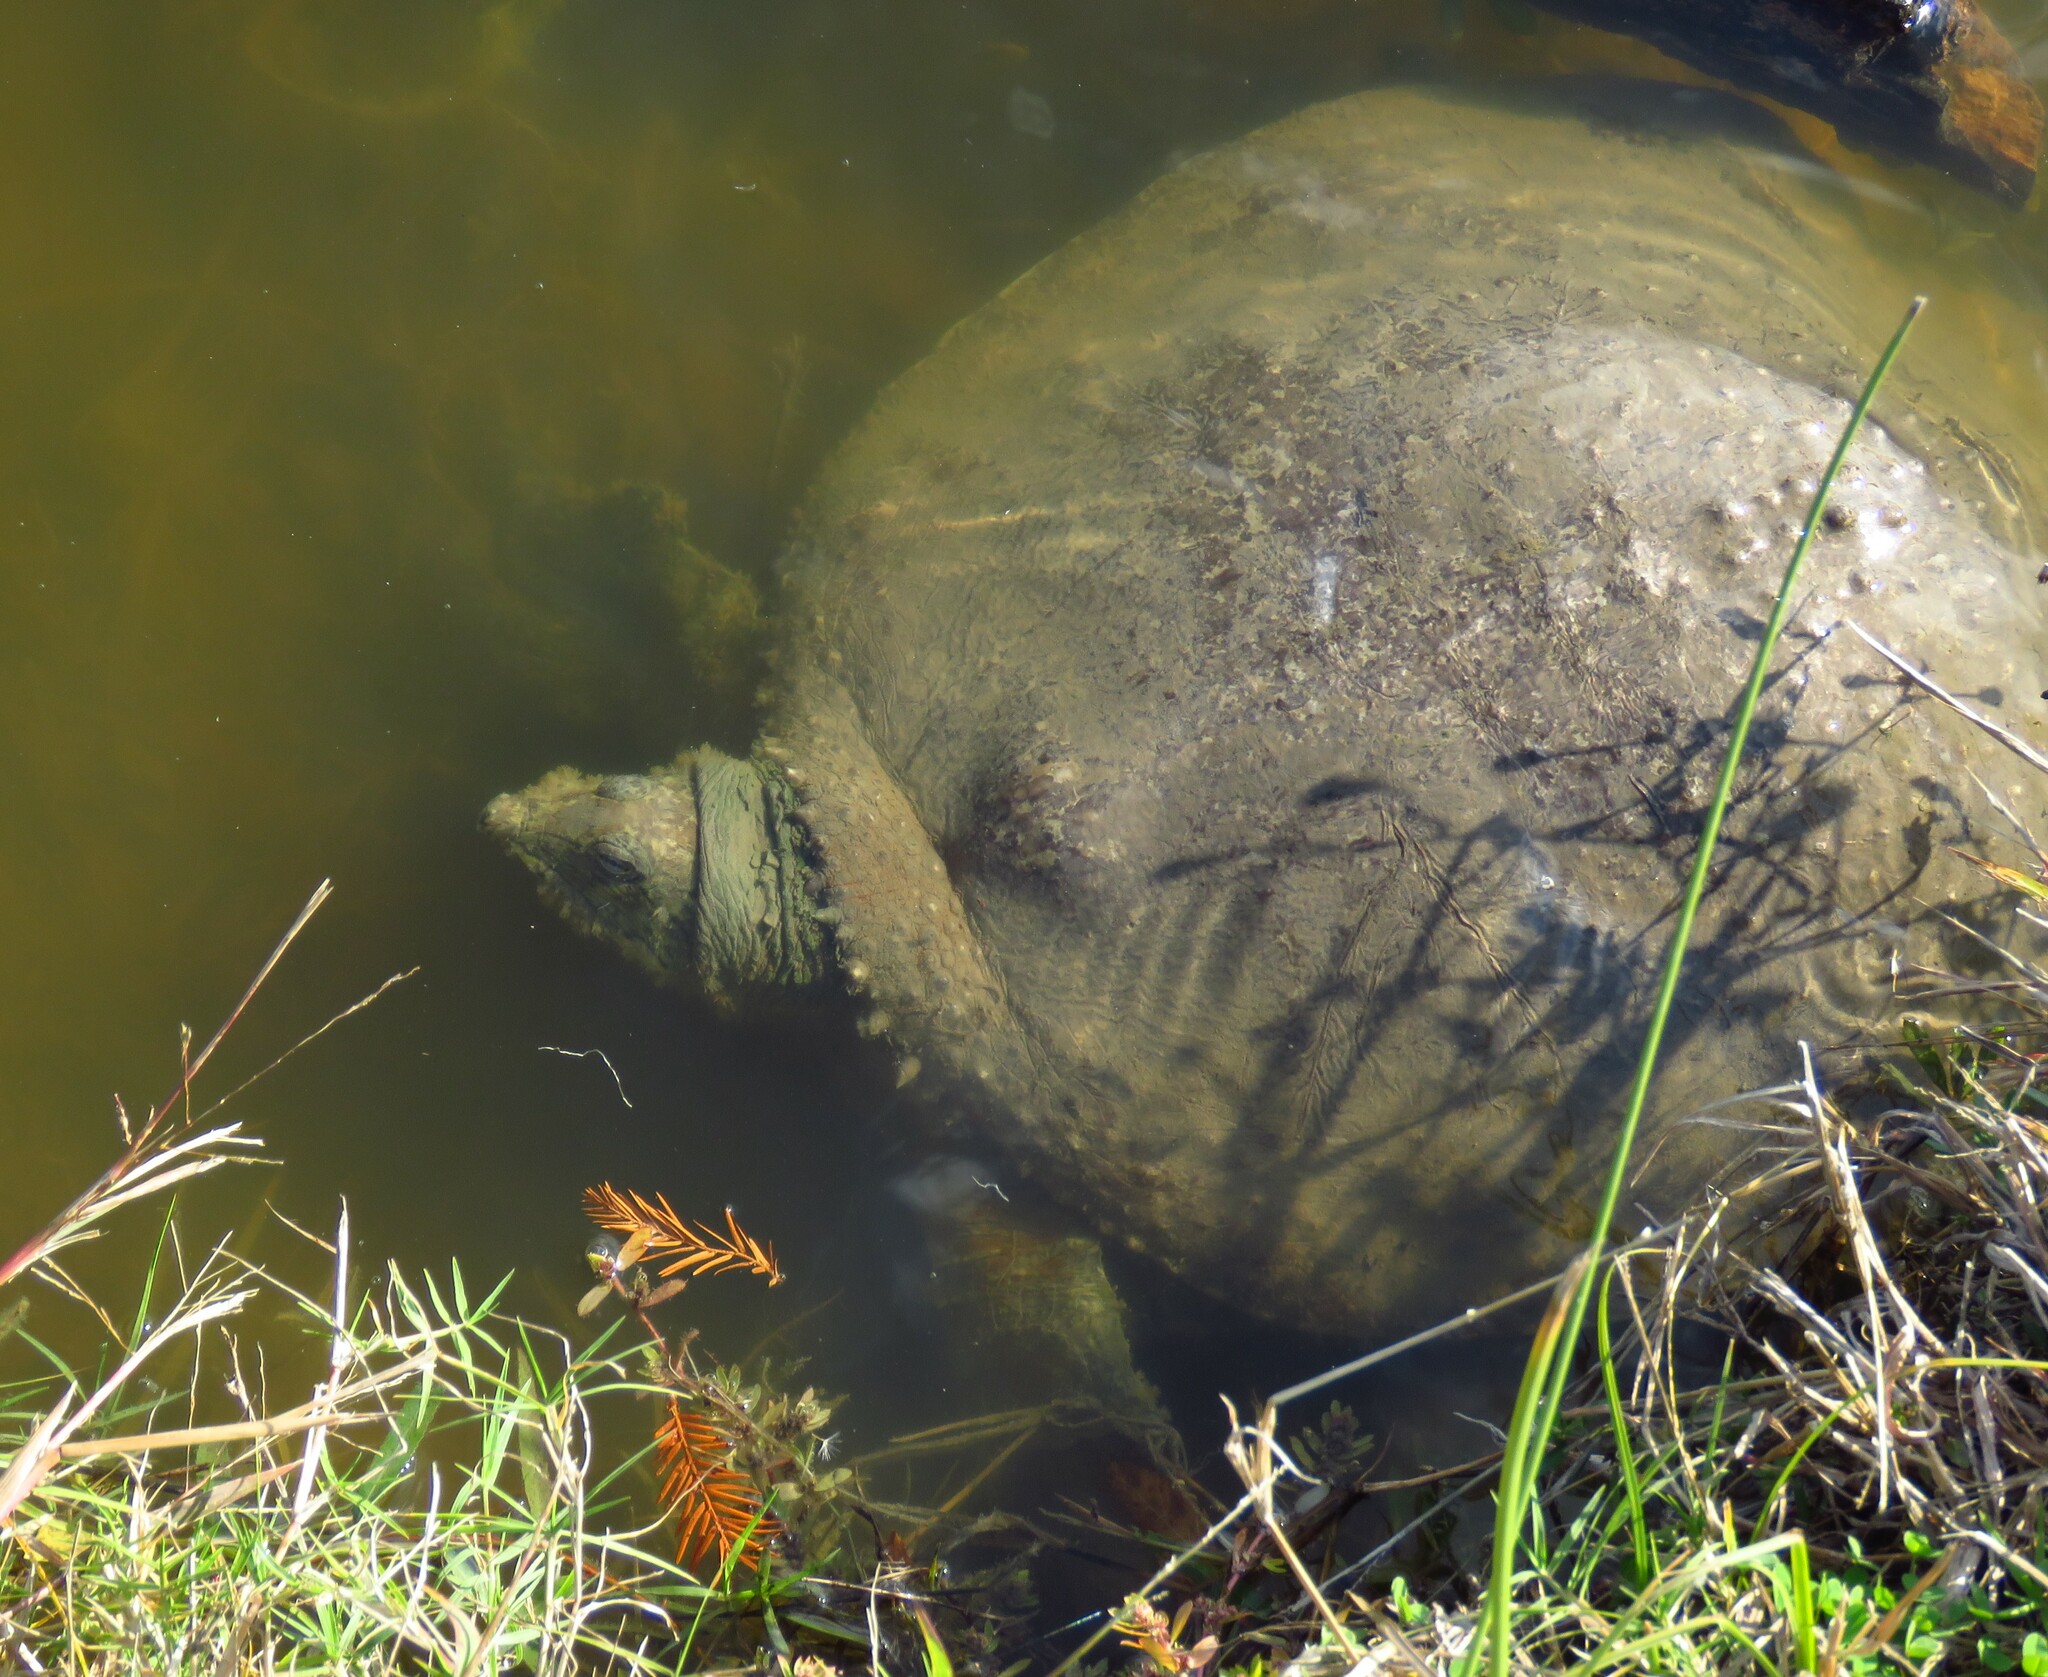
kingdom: Animalia
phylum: Chordata
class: Testudines
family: Trionychidae
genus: Apalone
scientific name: Apalone spinifera
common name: Spiny softshell turtle
